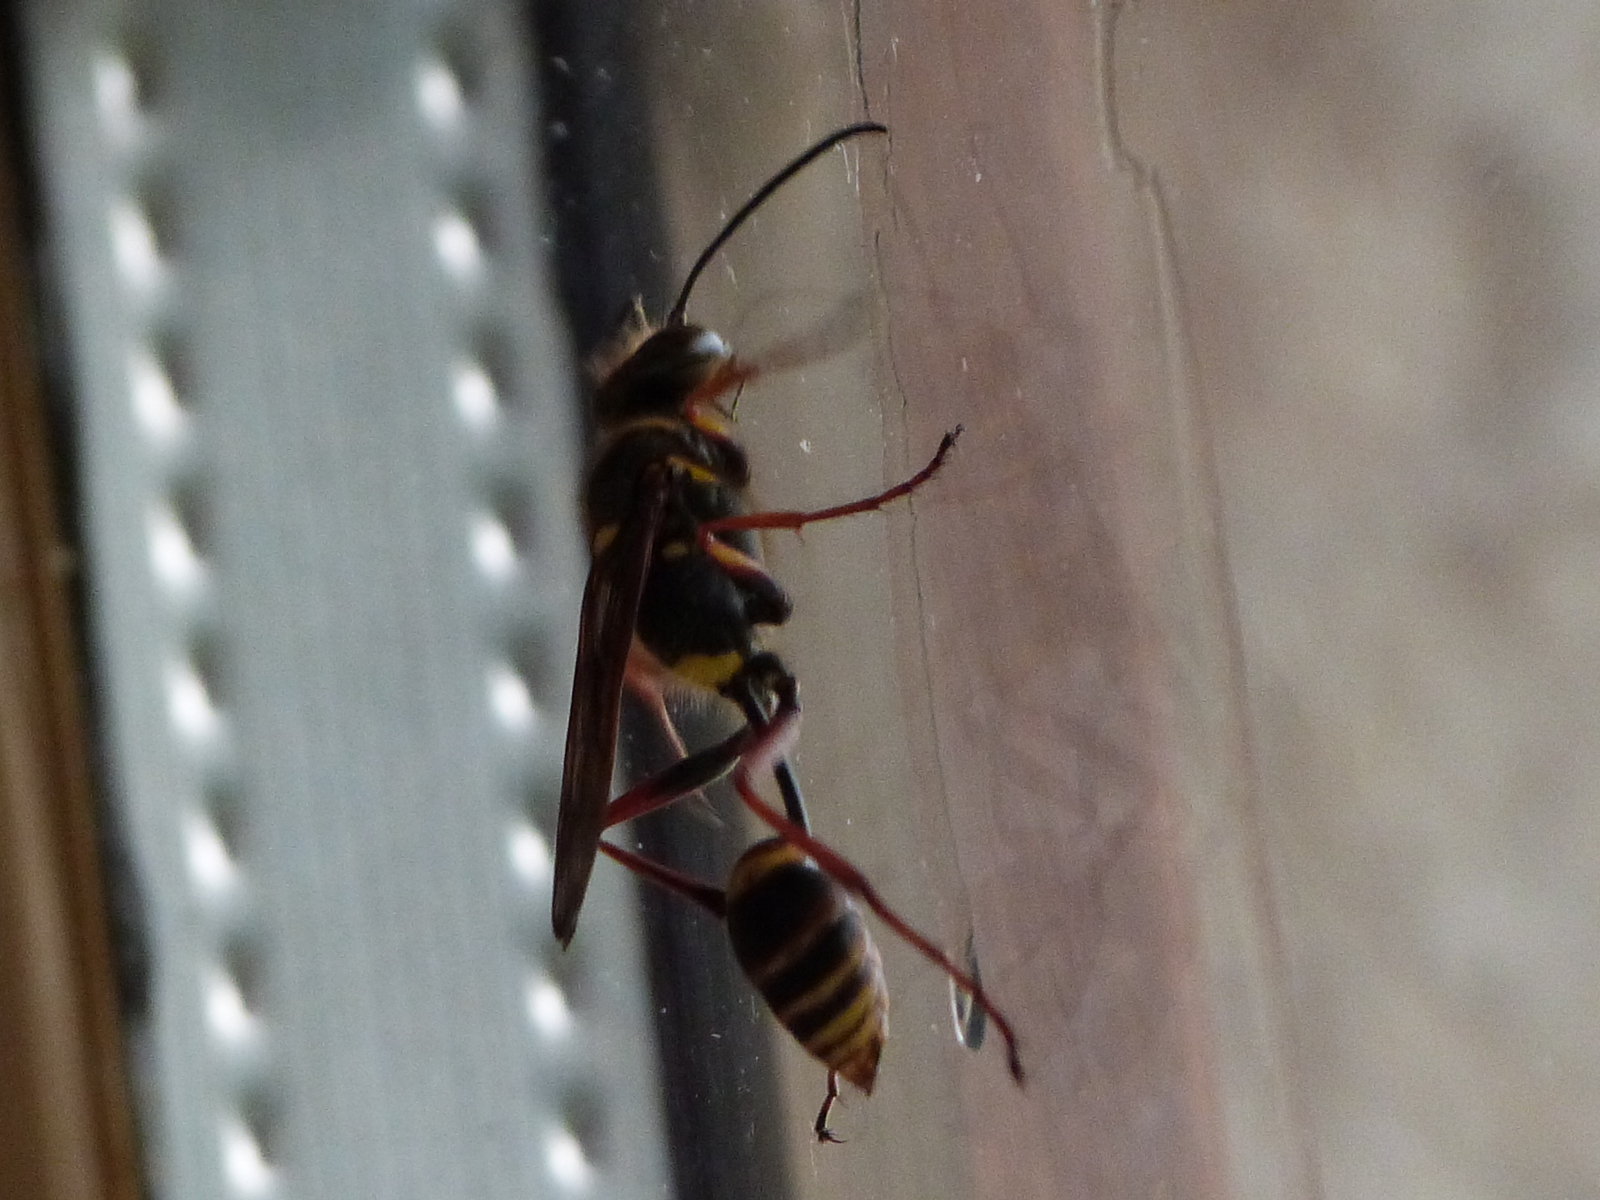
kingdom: Animalia
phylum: Arthropoda
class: Insecta
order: Hymenoptera
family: Sphecidae
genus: Sceliphron
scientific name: Sceliphron curvatum
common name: Pèlopèe
